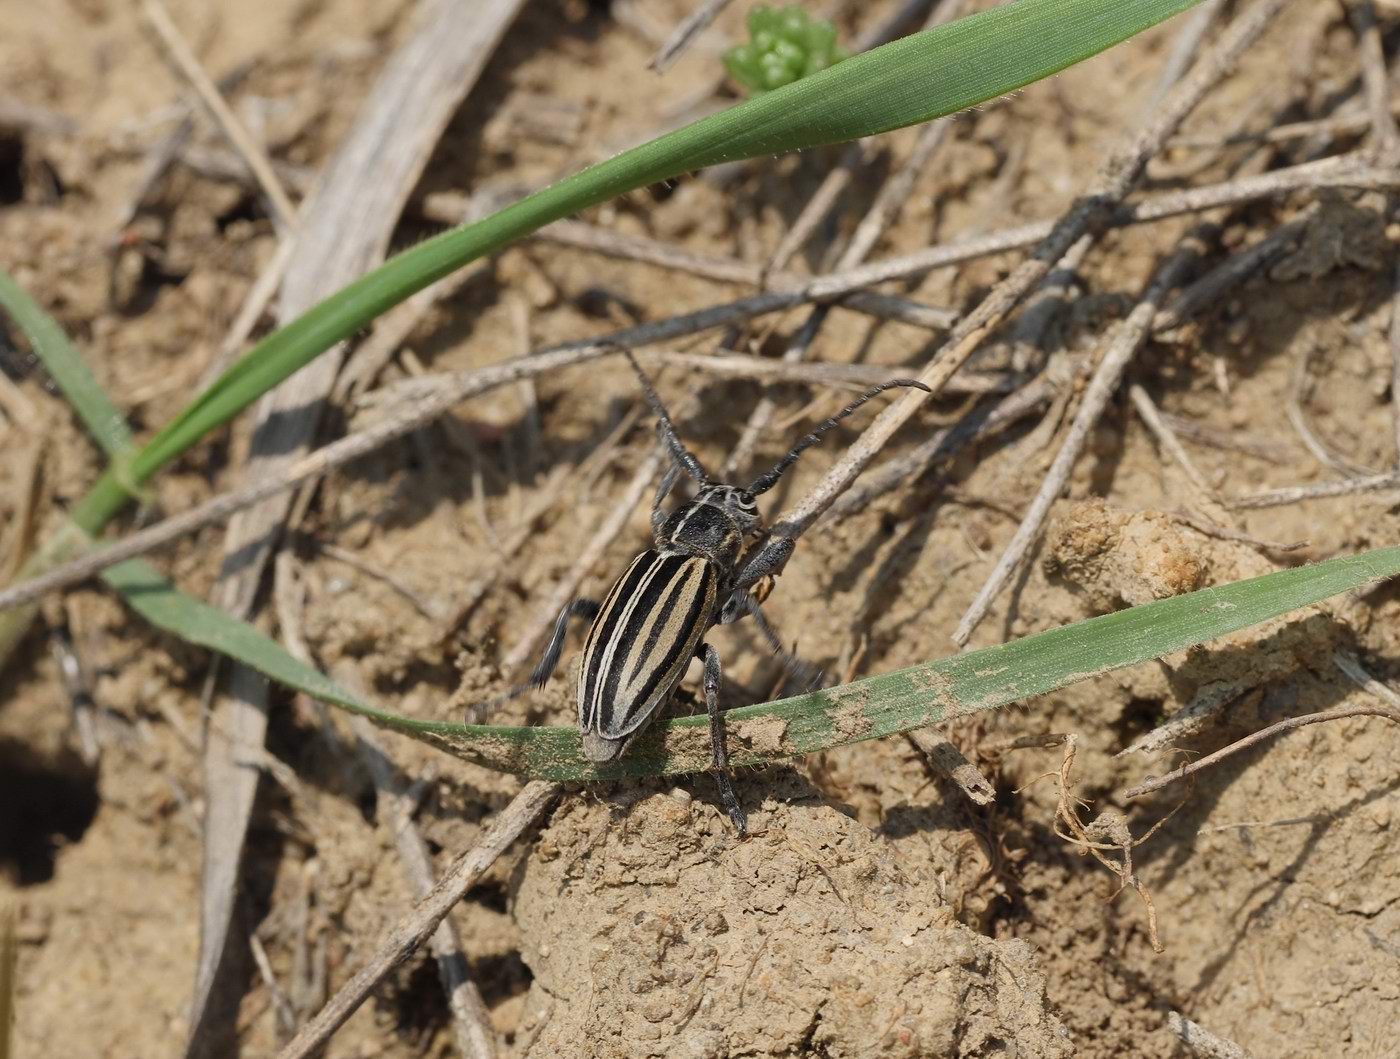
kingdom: Animalia
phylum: Arthropoda
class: Insecta
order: Coleoptera
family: Cerambycidae
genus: Dorcadion
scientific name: Dorcadion scopolii
